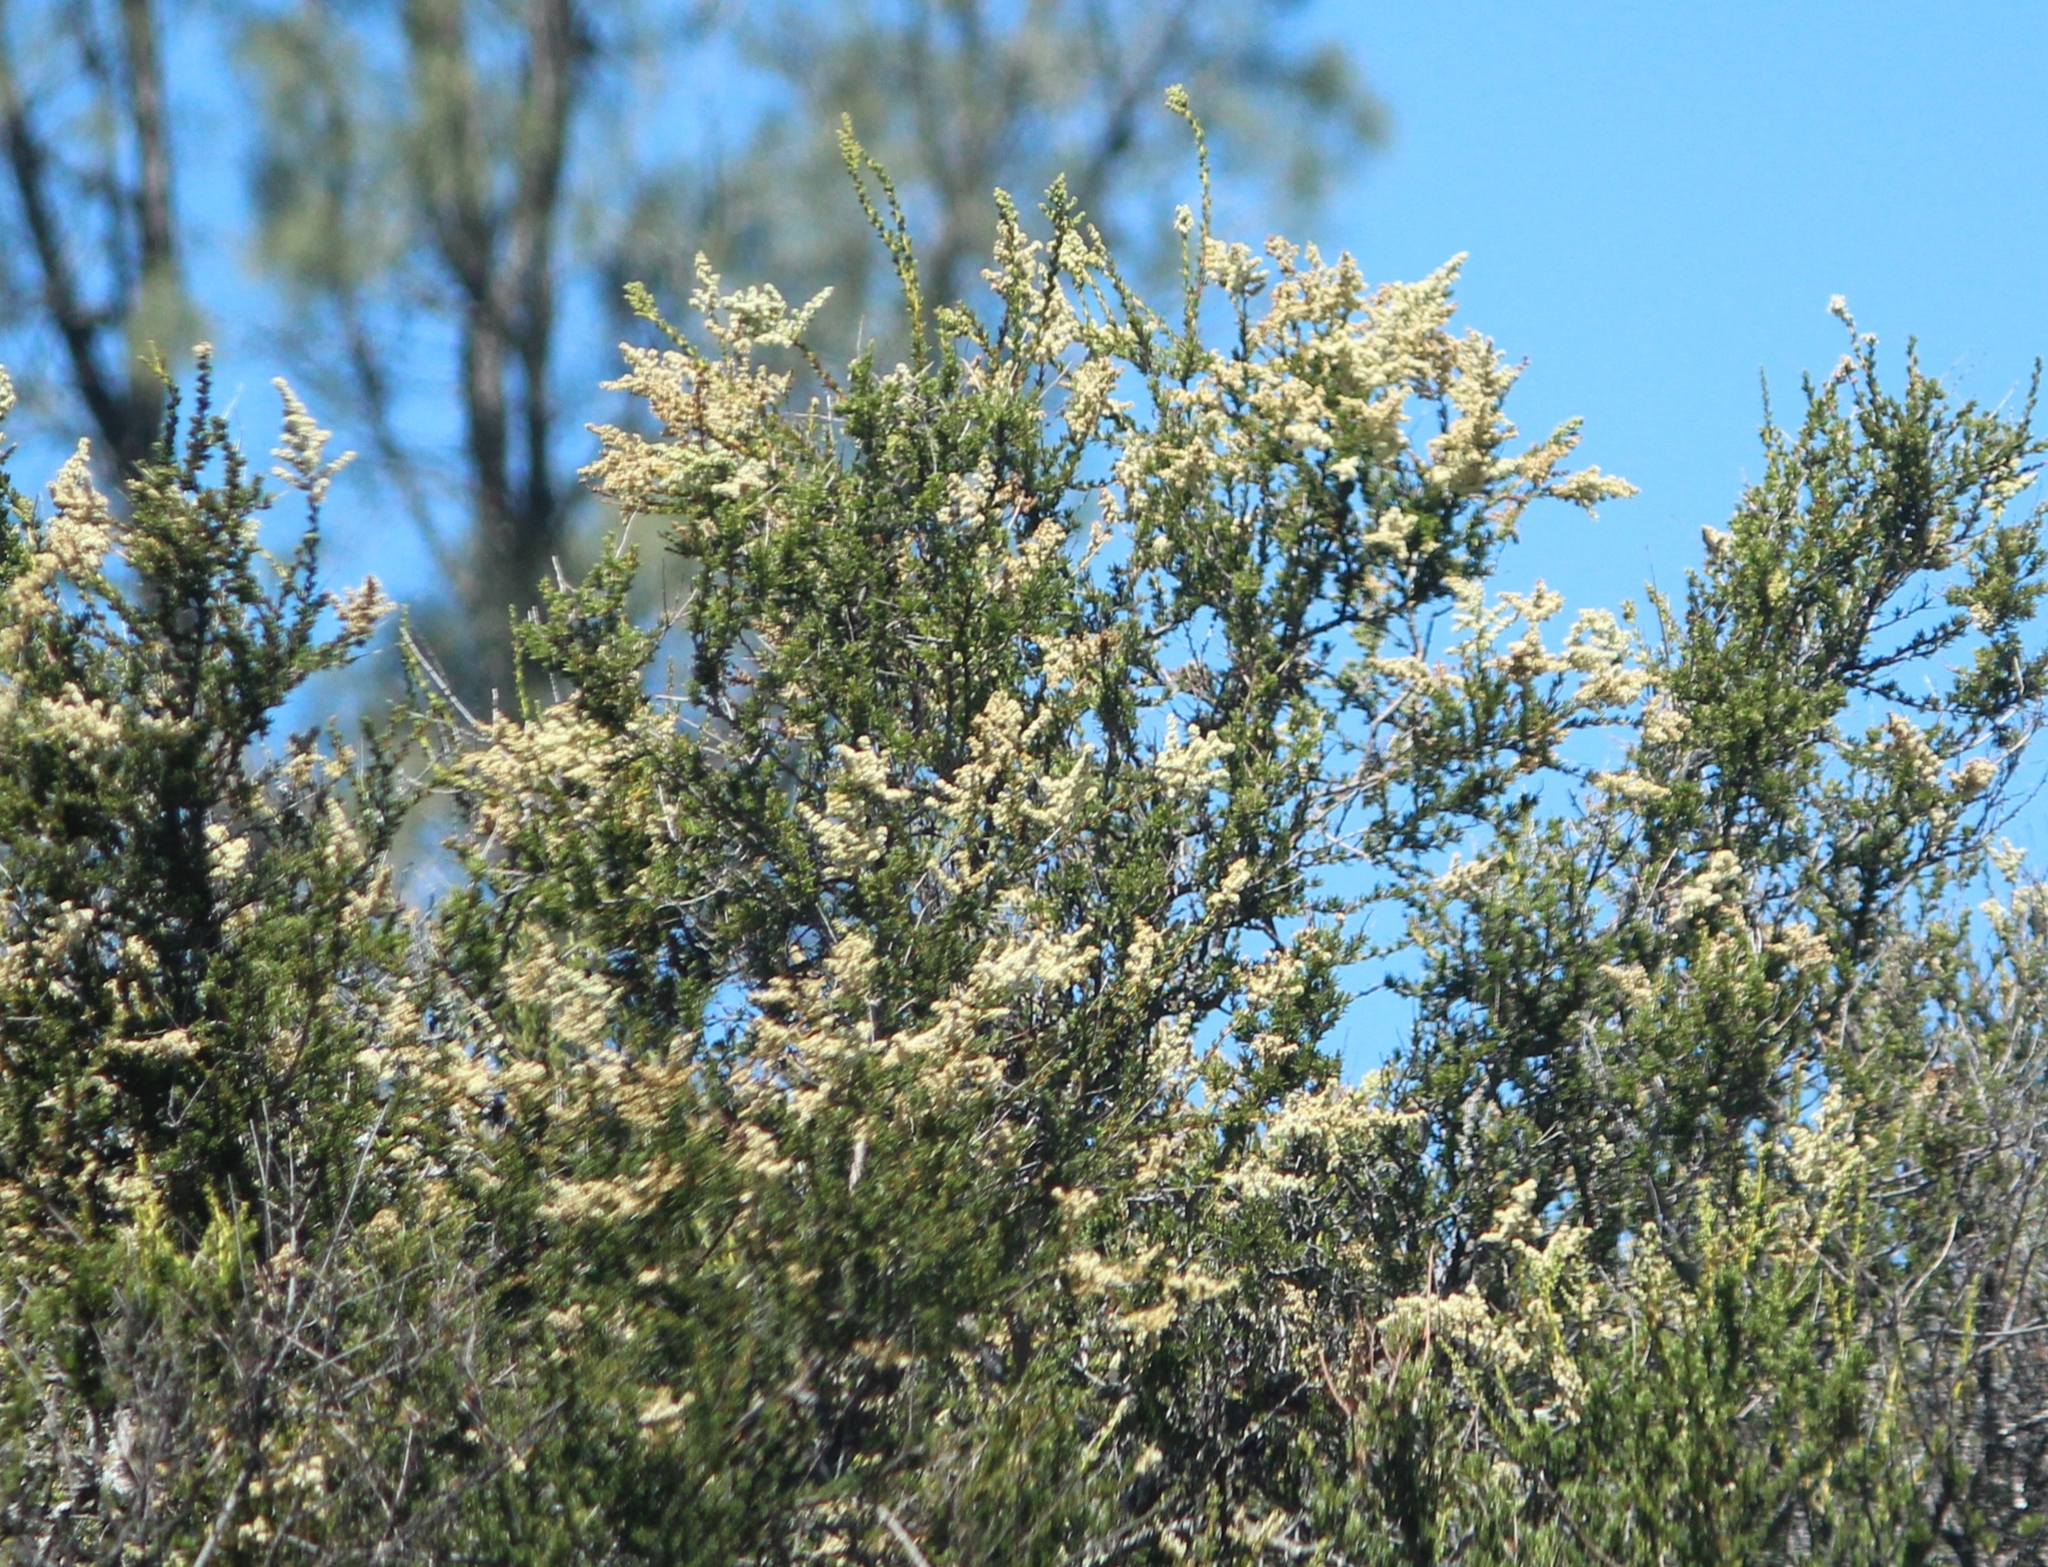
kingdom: Plantae
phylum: Tracheophyta
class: Magnoliopsida
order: Rosales
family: Rosaceae
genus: Adenostoma
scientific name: Adenostoma fasciculatum
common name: Chamise
